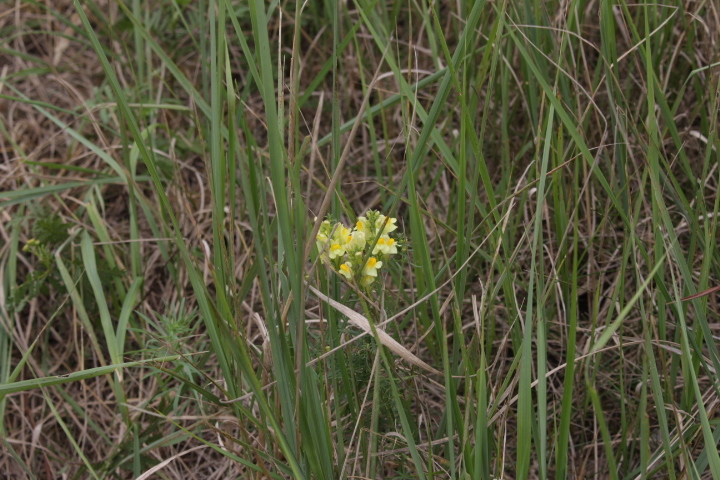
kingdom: Plantae
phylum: Tracheophyta
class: Magnoliopsida
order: Lamiales
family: Plantaginaceae
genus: Linaria
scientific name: Linaria vulgaris
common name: Butter and eggs
